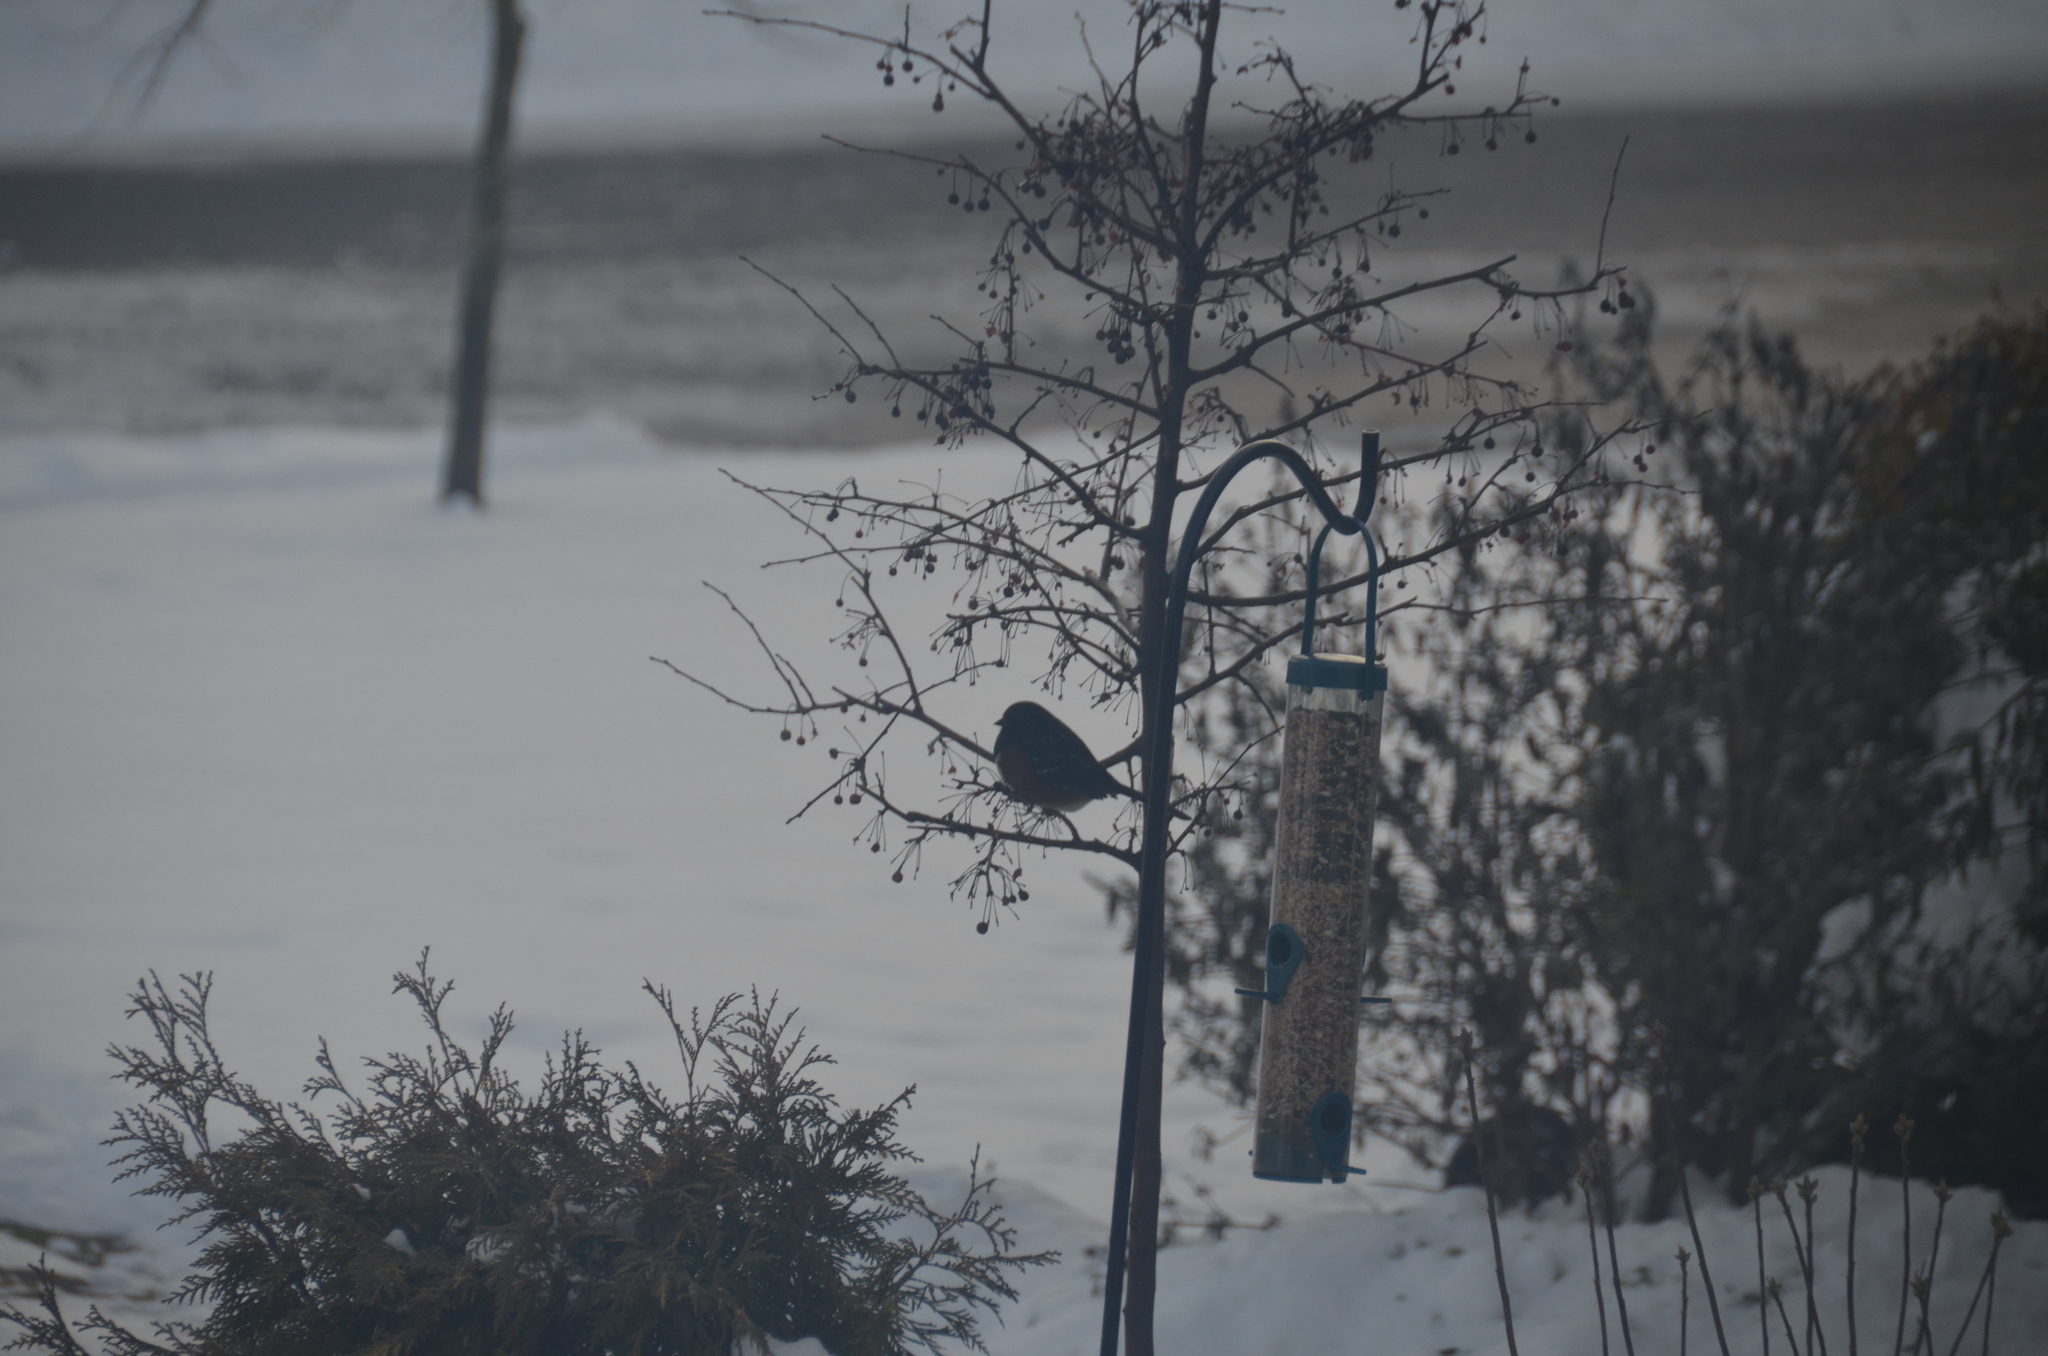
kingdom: Animalia
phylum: Chordata
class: Aves
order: Passeriformes
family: Passerellidae
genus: Pipilo
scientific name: Pipilo maculatus
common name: Spotted towhee
